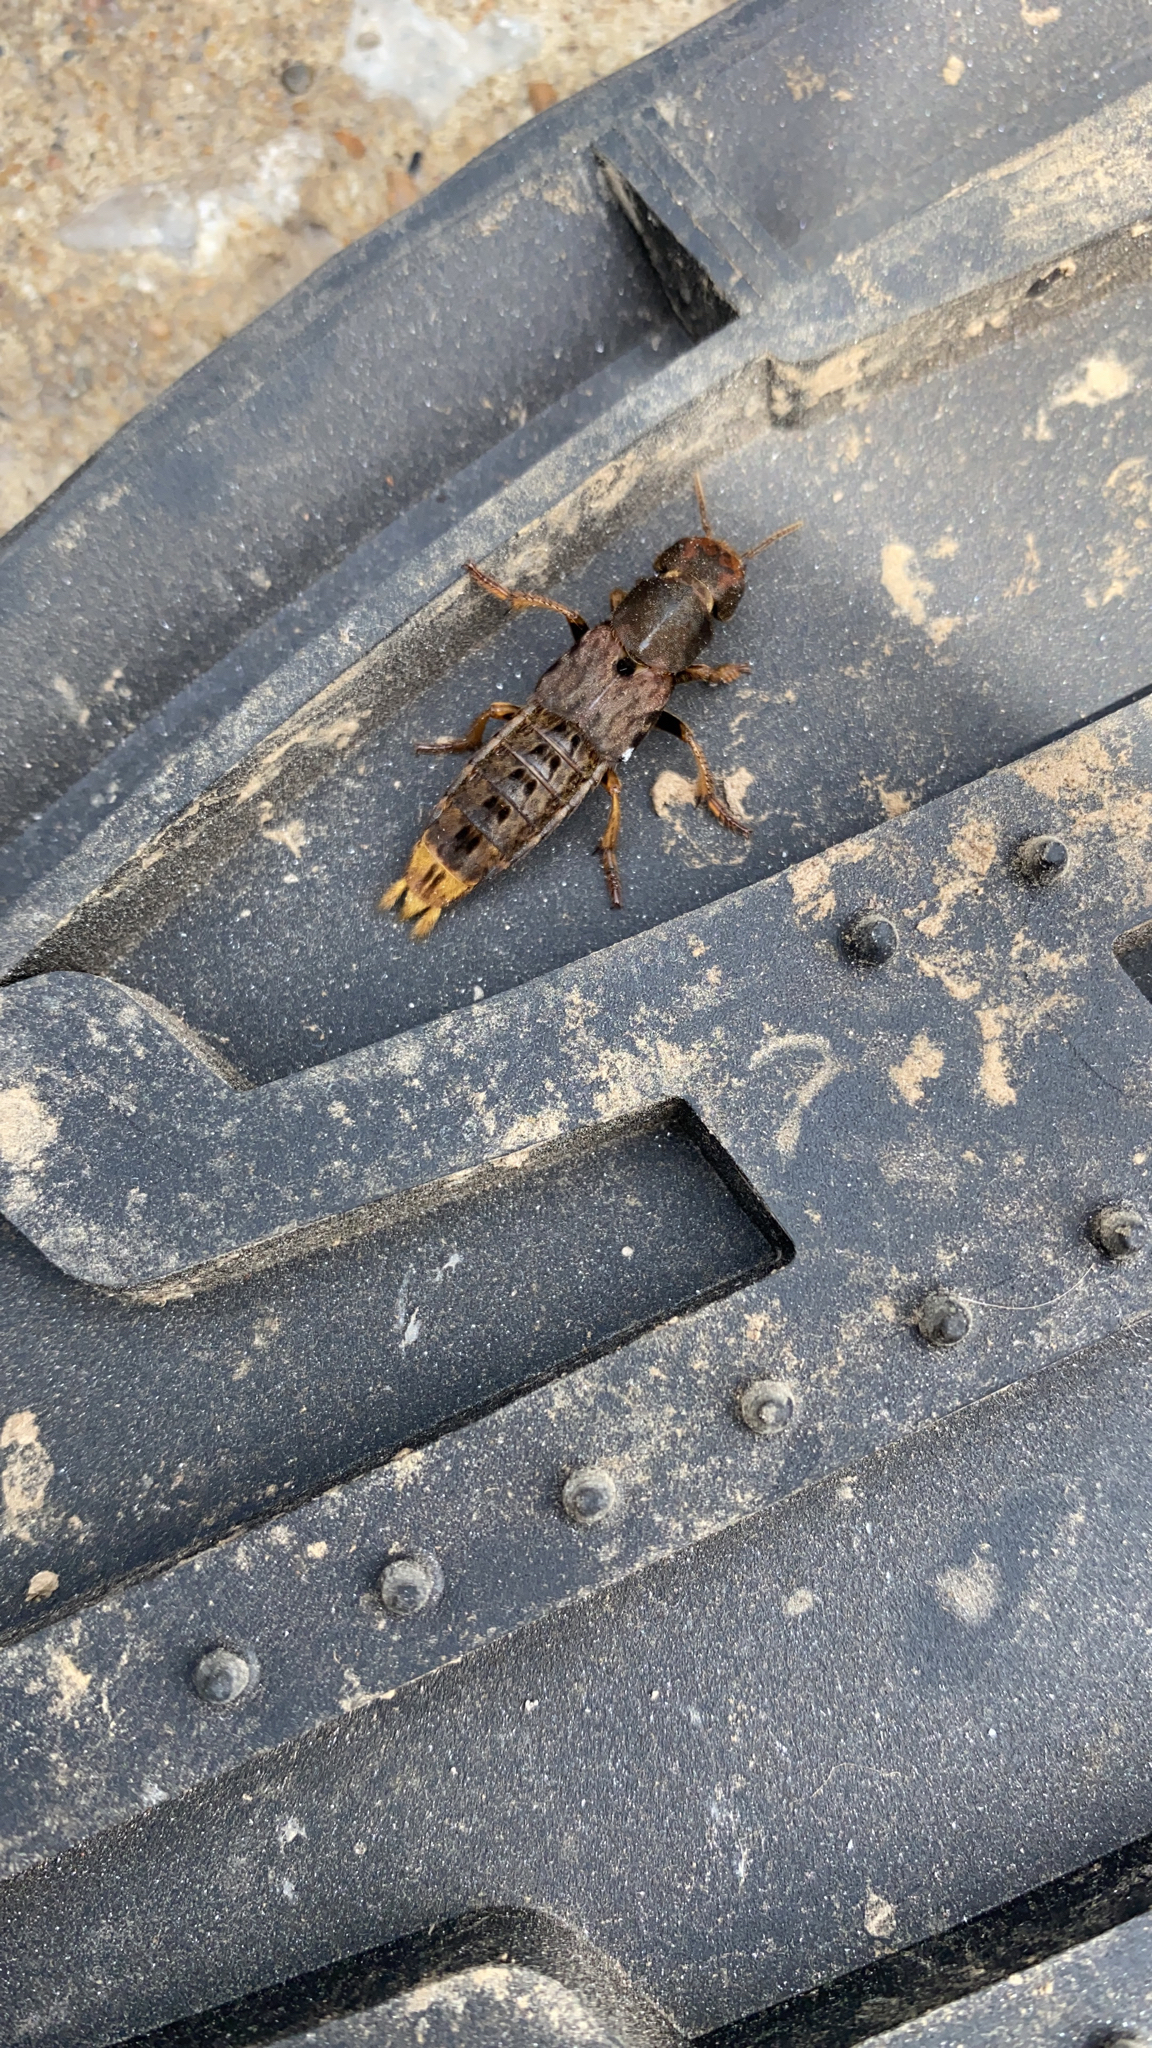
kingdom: Animalia
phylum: Arthropoda
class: Insecta
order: Coleoptera
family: Staphylinidae
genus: Platydracus
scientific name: Platydracus maculosus
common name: Brown rove beetle
